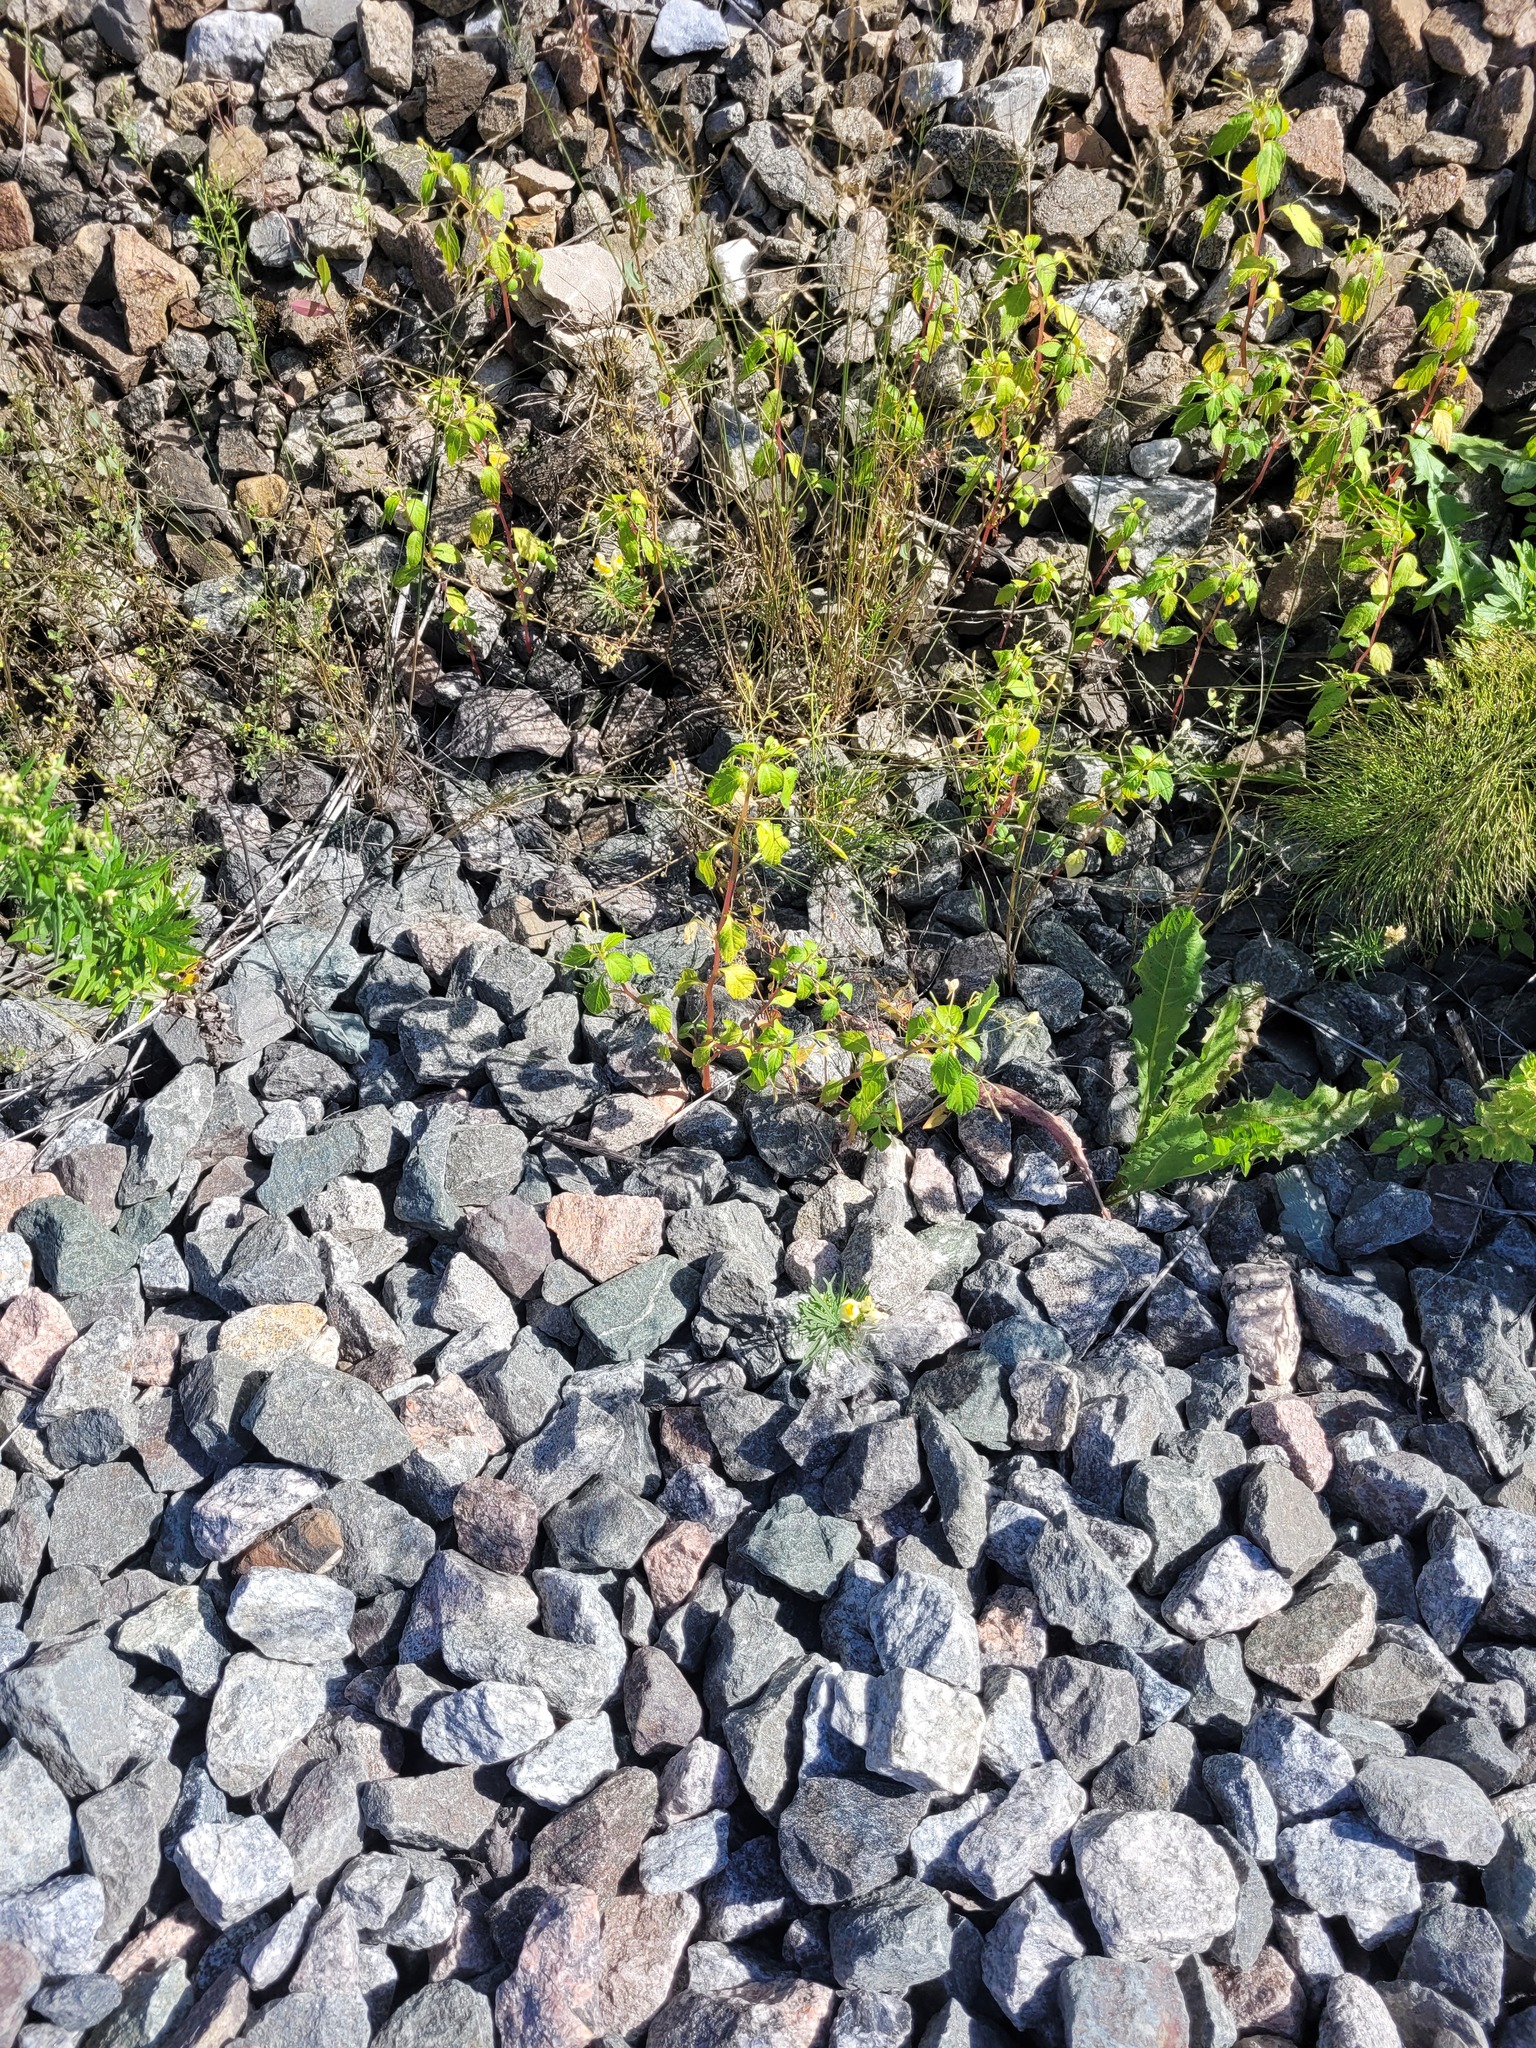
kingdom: Plantae
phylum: Tracheophyta
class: Magnoliopsida
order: Ericales
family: Balsaminaceae
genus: Impatiens
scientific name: Impatiens parviflora
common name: Small balsam
